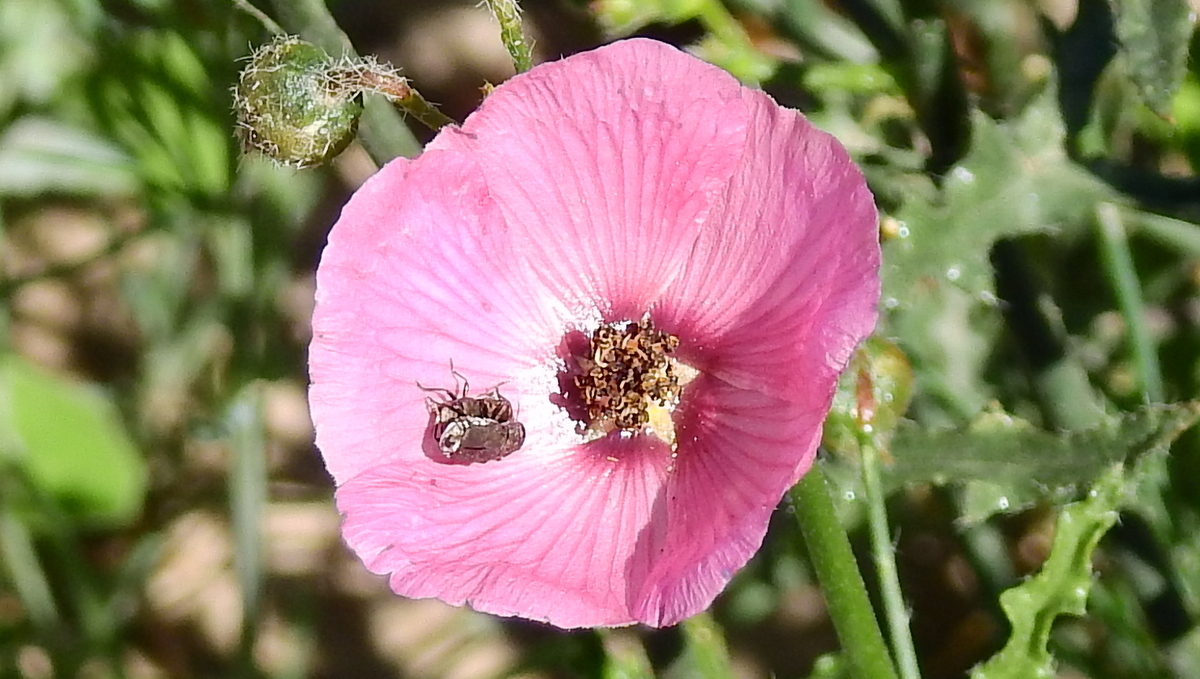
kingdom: Plantae
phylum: Tracheophyta
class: Magnoliopsida
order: Malvales
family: Malvaceae
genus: Lecanophora
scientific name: Lecanophora heterophylla
